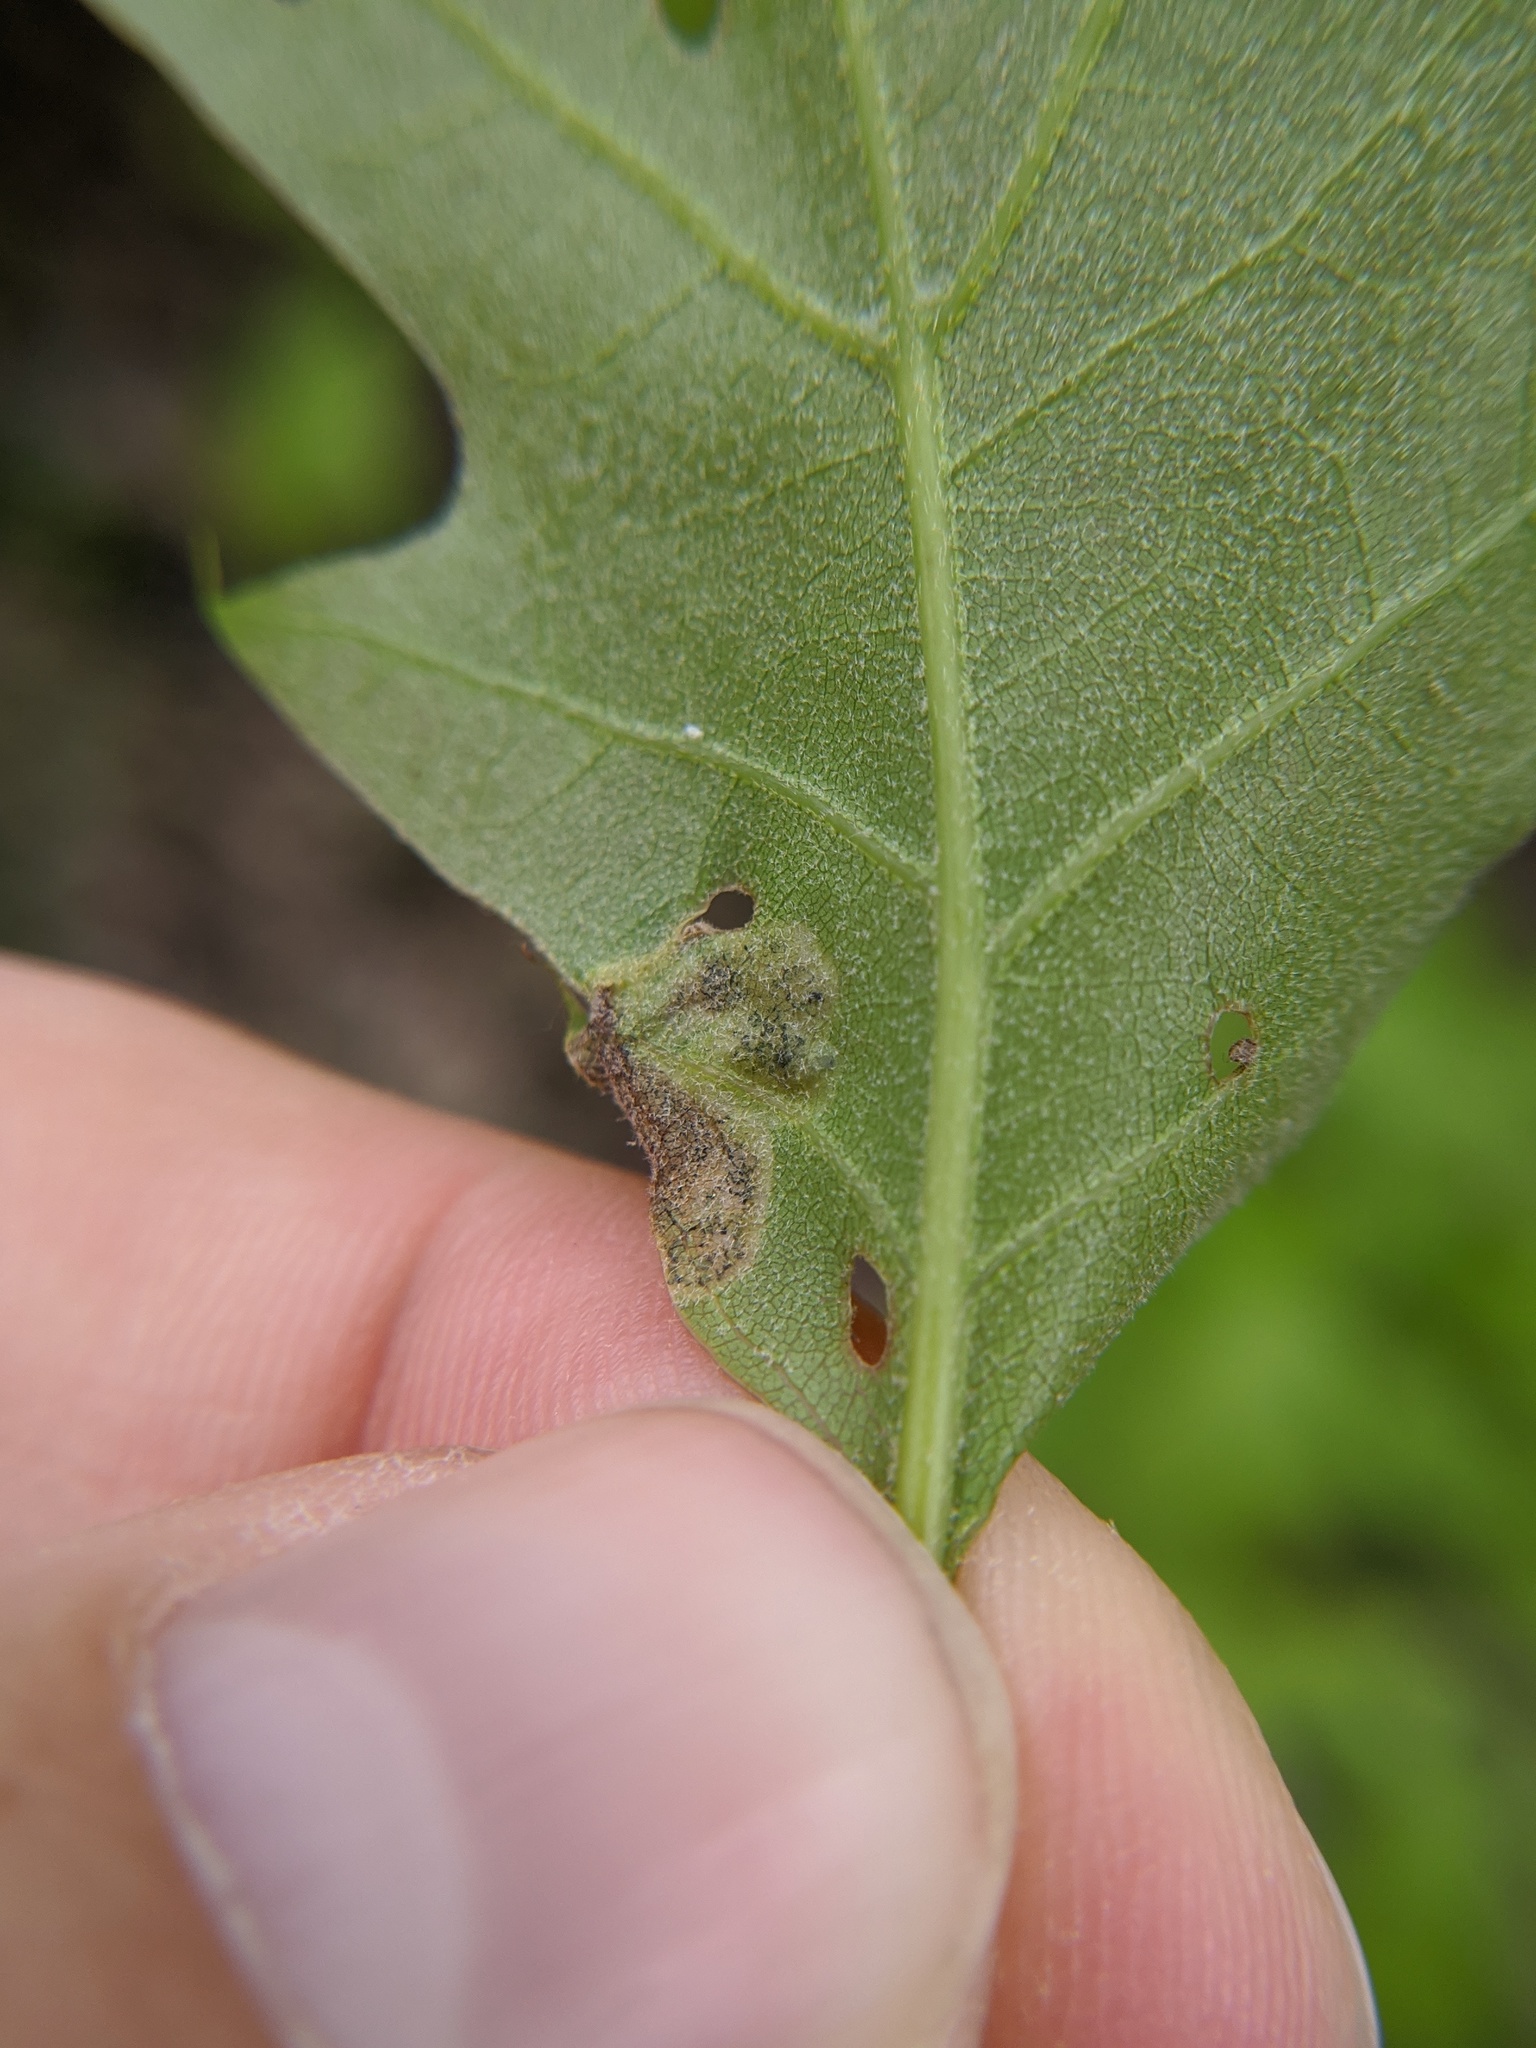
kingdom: Animalia
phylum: Arthropoda
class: Insecta
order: Diptera
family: Agromyzidae
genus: Japanagromyza
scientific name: Japanagromyza viridula
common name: Oak shothole leafminer
